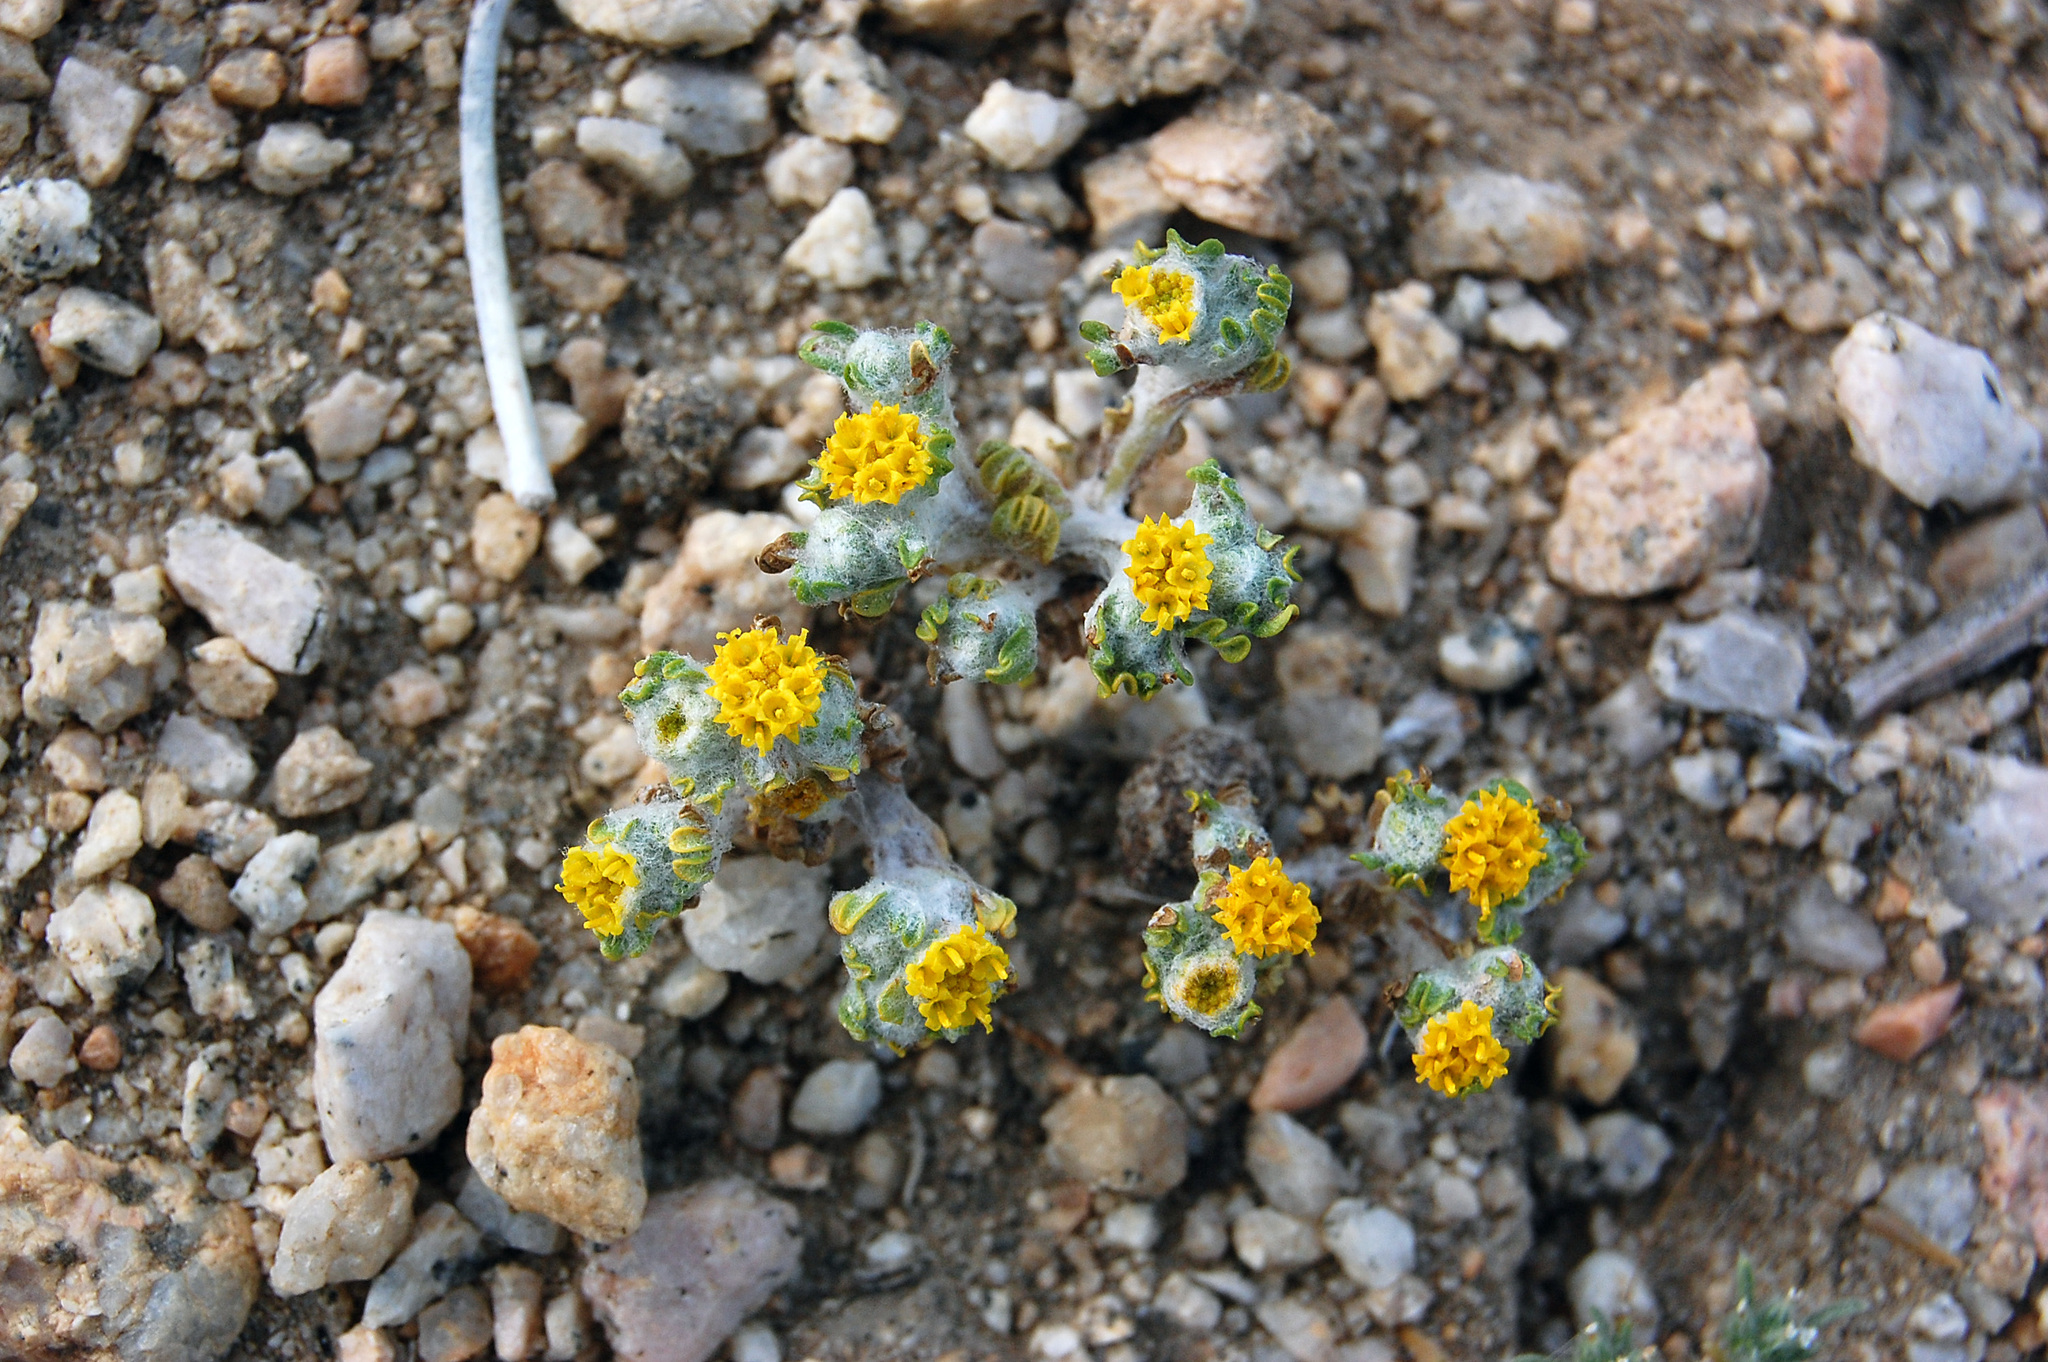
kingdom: Plantae
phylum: Tracheophyta
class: Magnoliopsida
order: Asterales
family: Asteraceae
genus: Eriophyllum
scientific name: Eriophyllum pringlei
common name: Pringle's woolly-sunflower
